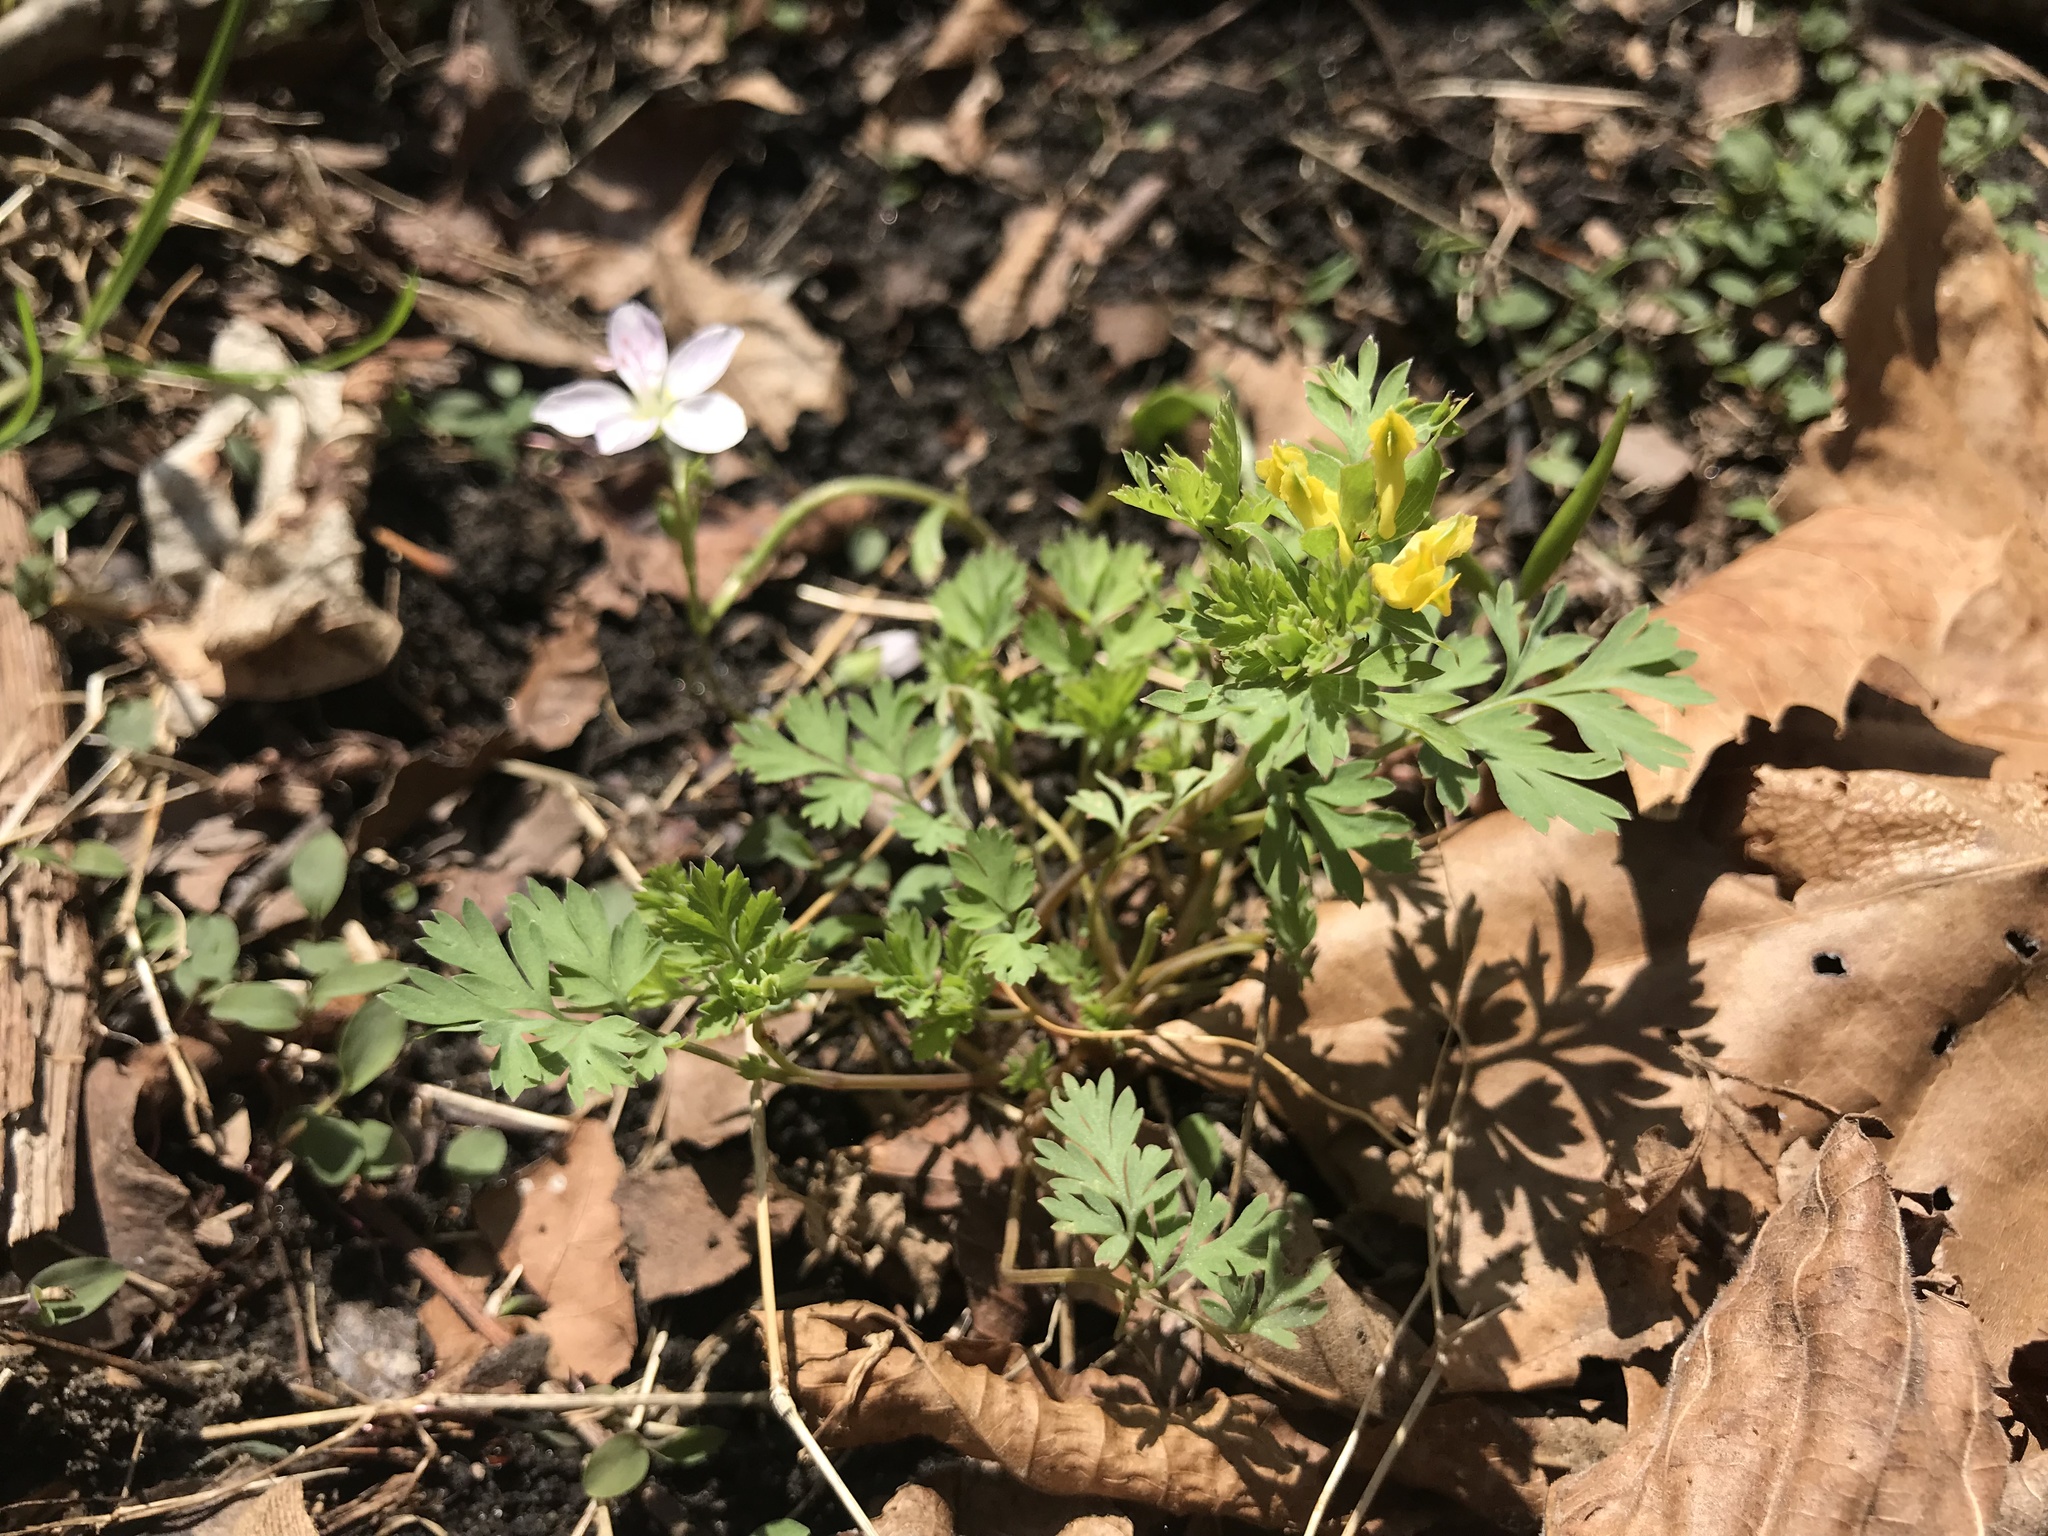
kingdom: Plantae
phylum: Tracheophyta
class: Magnoliopsida
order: Ranunculales
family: Papaveraceae
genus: Corydalis
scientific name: Corydalis flavula
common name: Yellow corydalis
